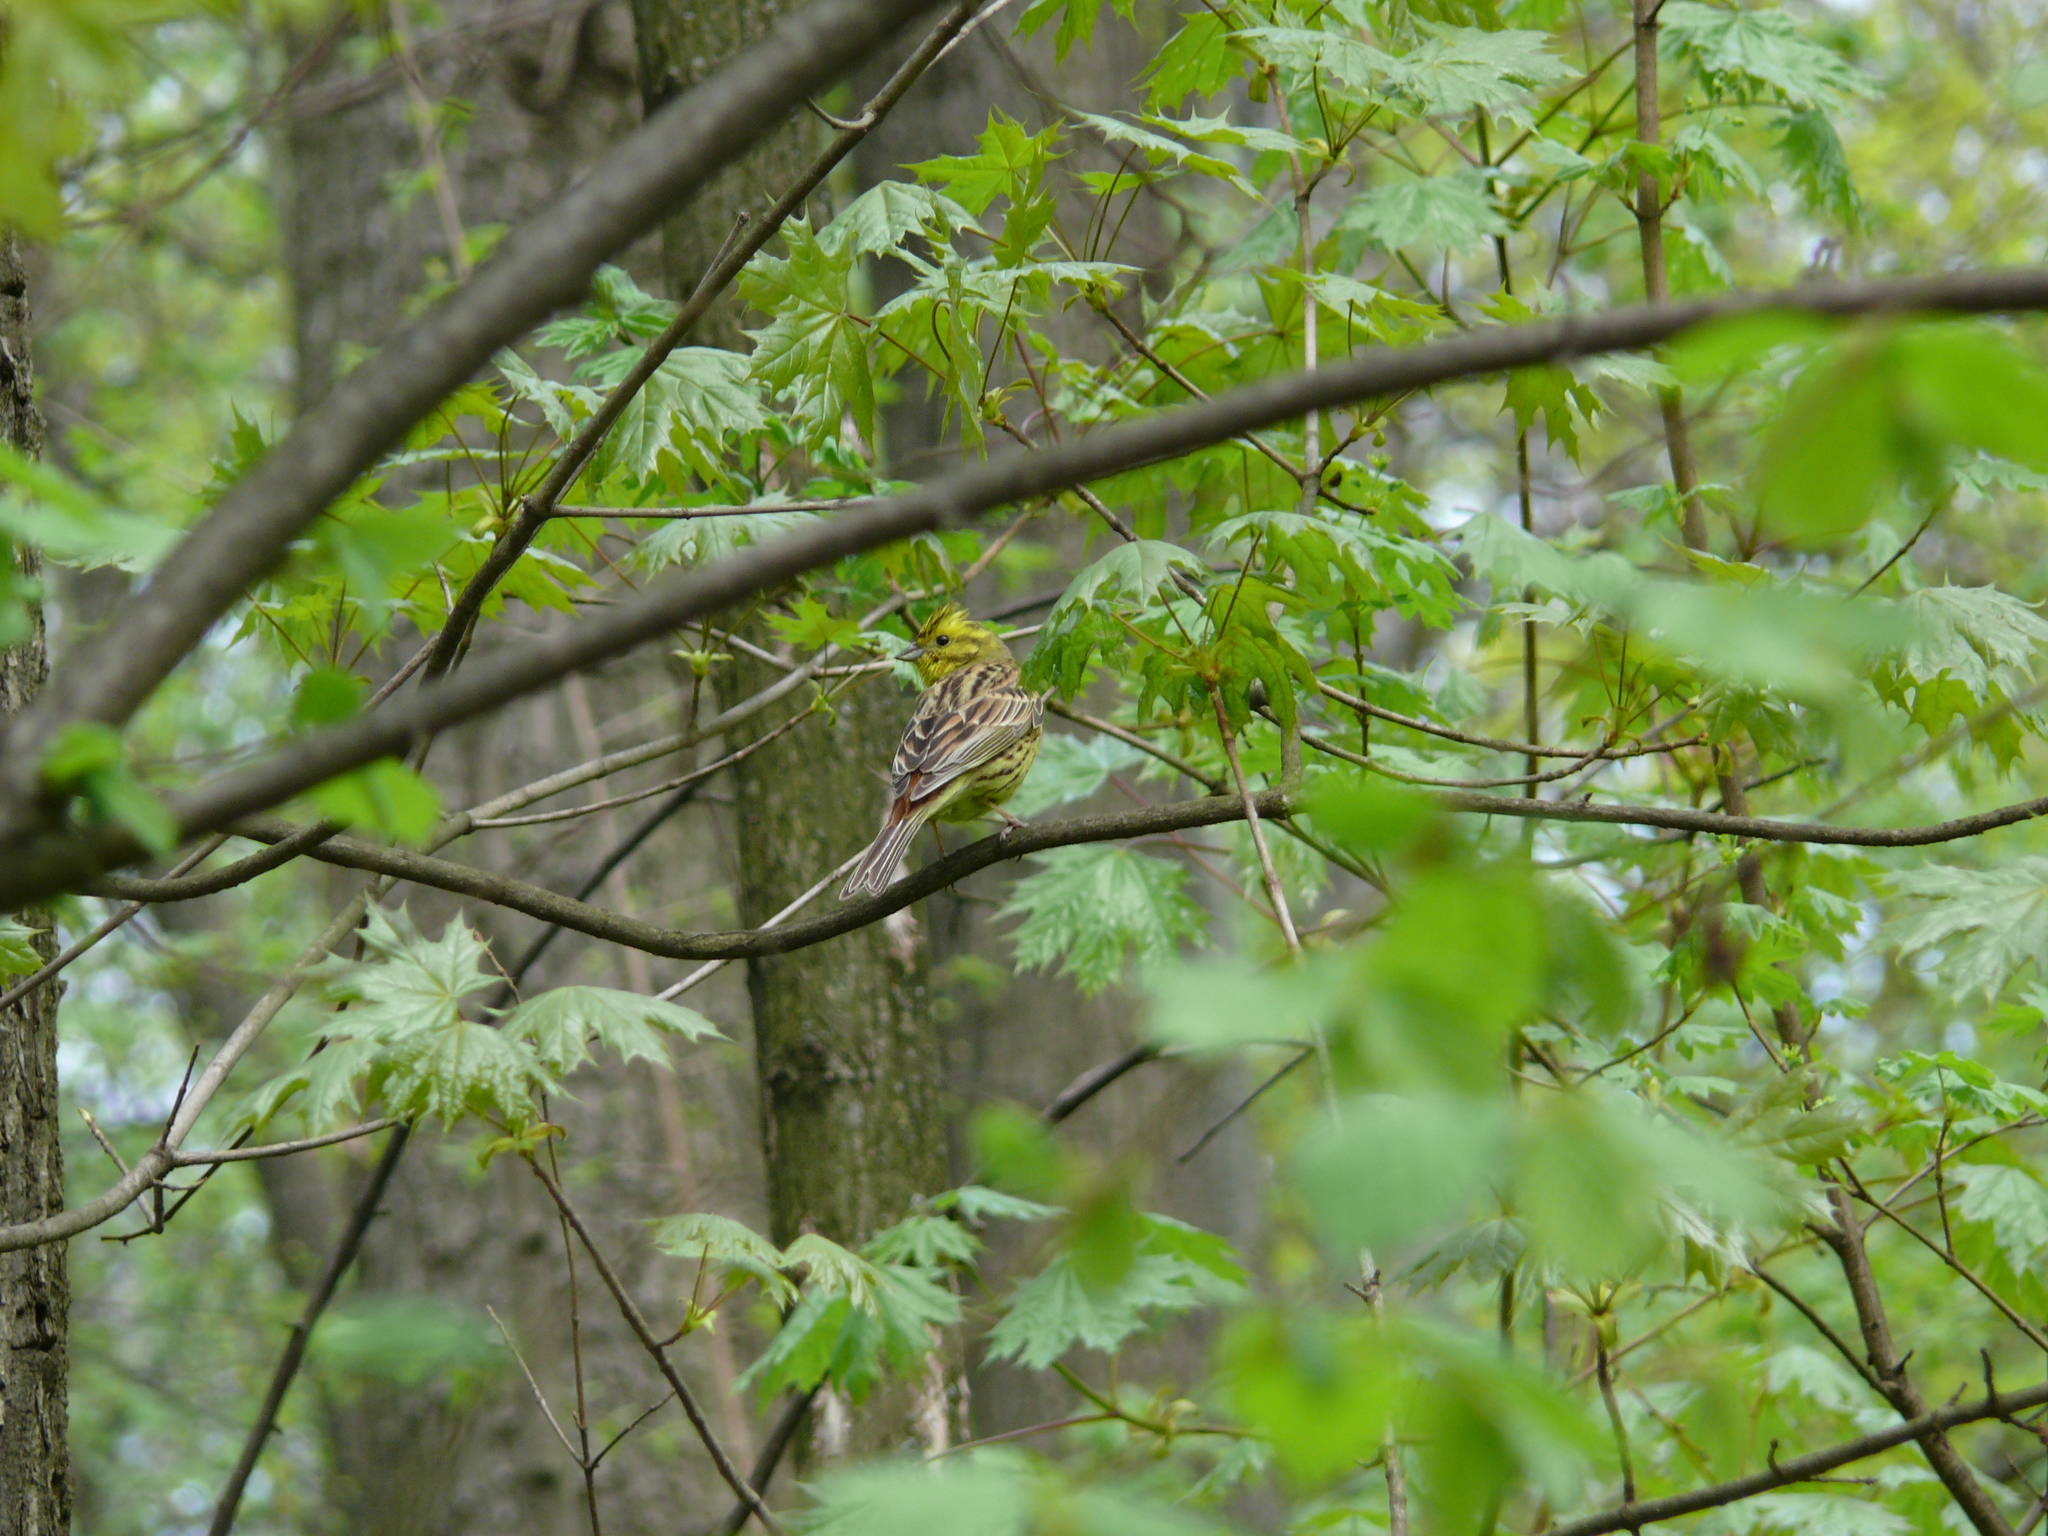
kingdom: Animalia
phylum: Chordata
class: Aves
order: Passeriformes
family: Emberizidae
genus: Emberiza
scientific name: Emberiza citrinella
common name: Yellowhammer
